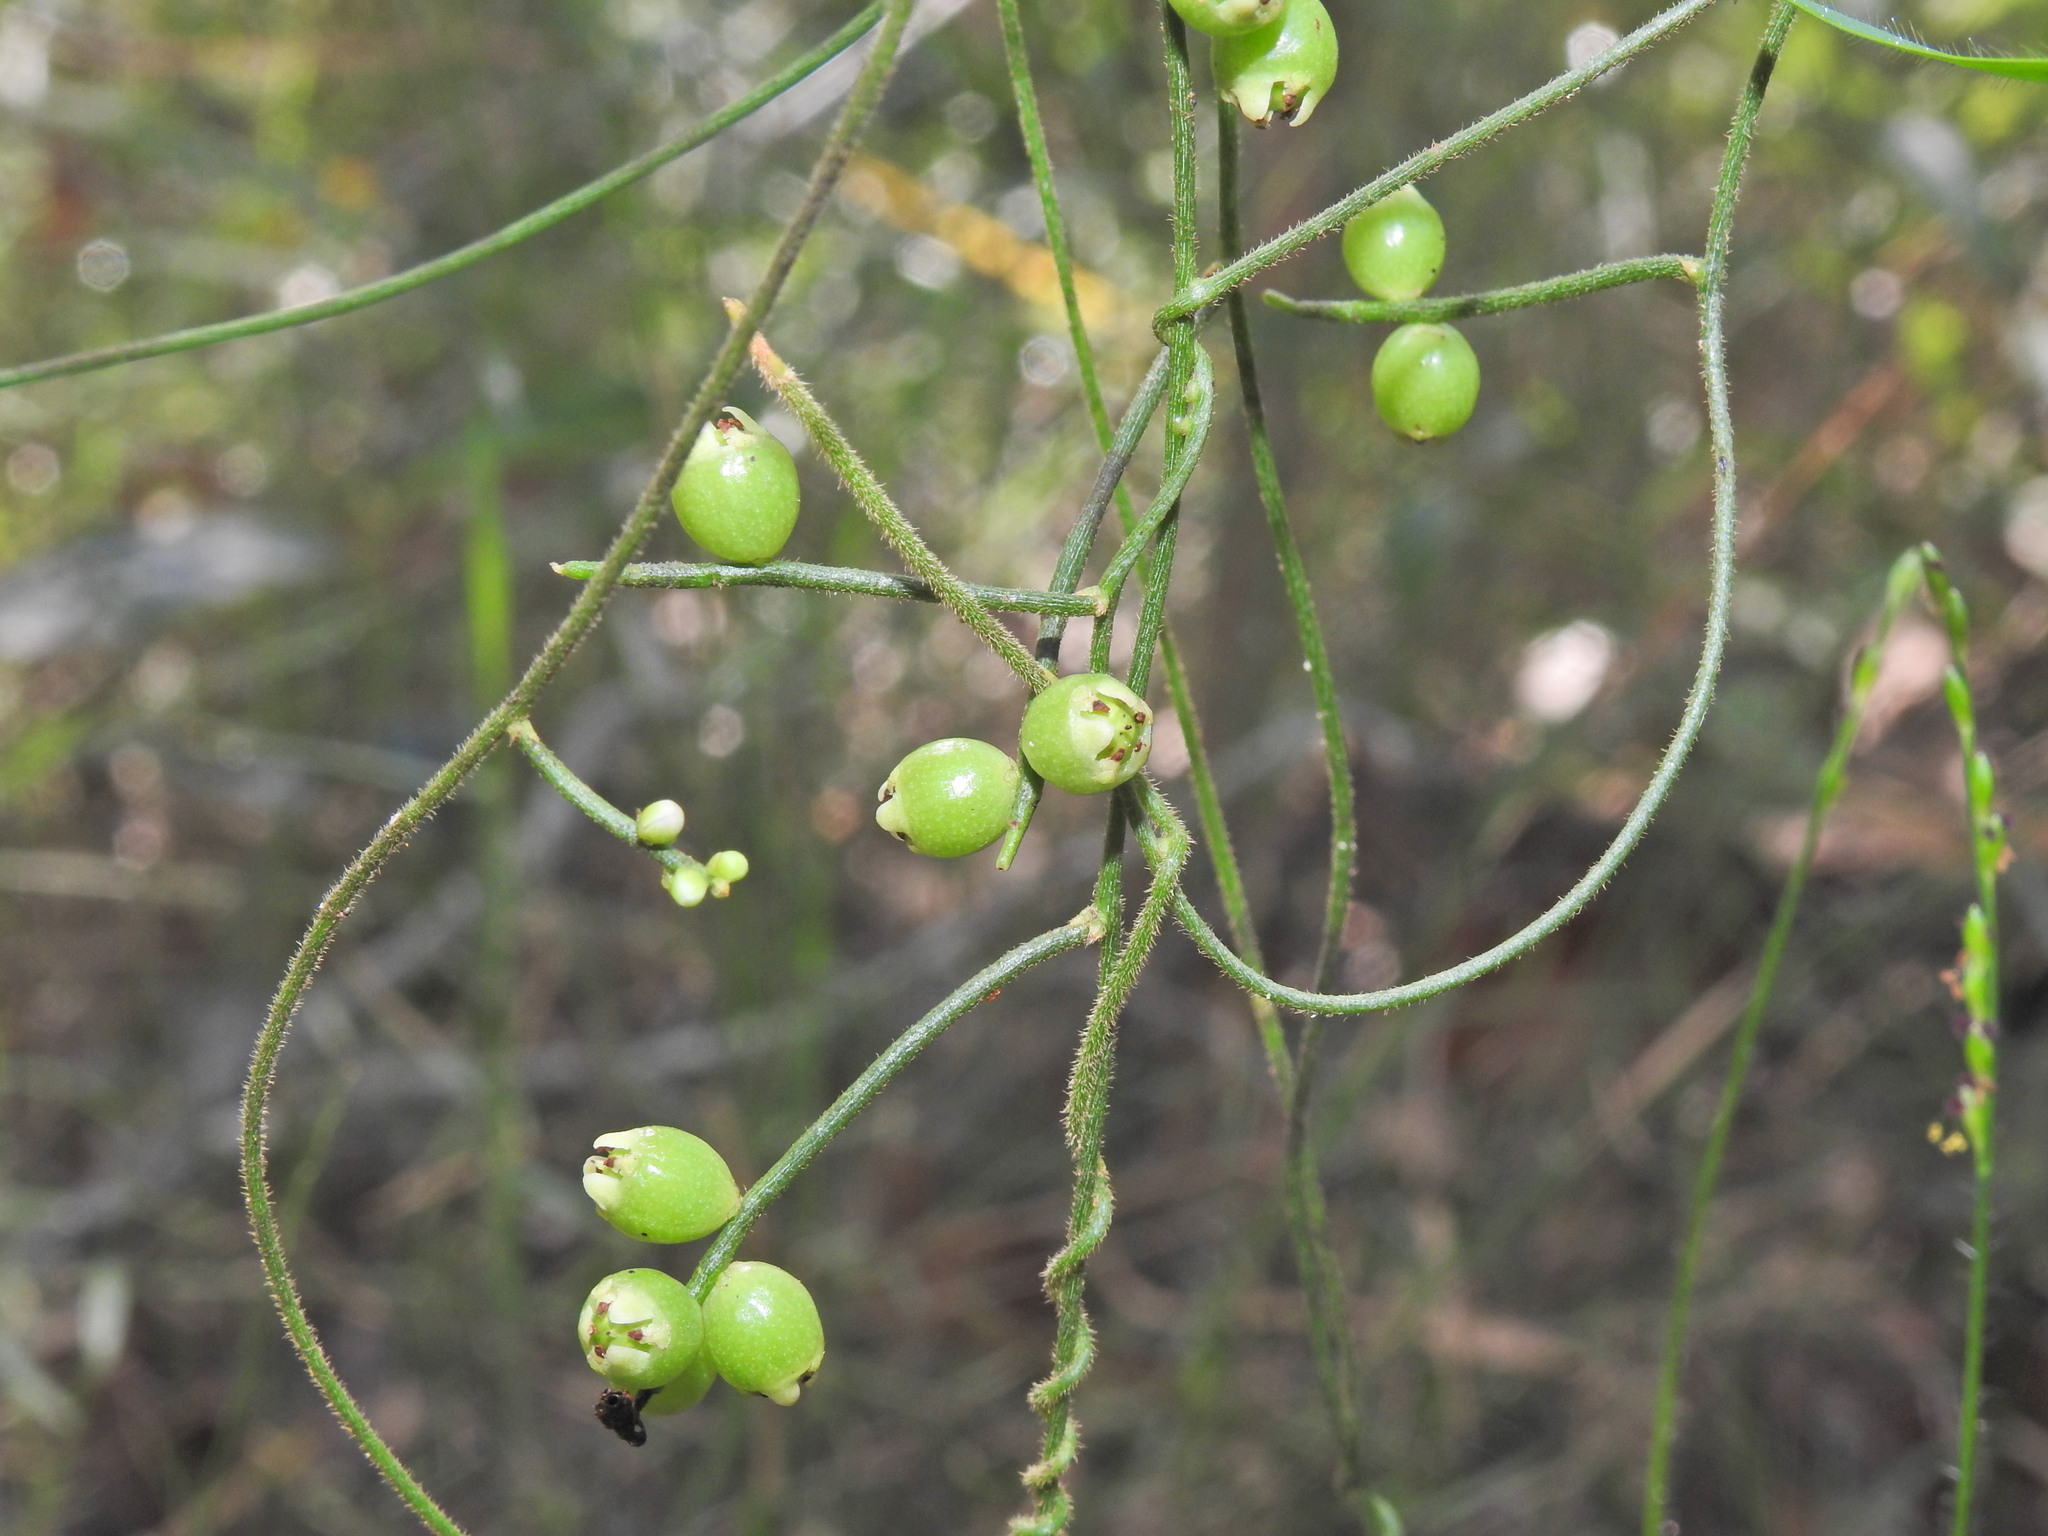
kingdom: Plantae
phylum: Tracheophyta
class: Magnoliopsida
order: Laurales
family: Lauraceae
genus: Cassytha
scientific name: Cassytha filiformis
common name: Dodder-laurel
